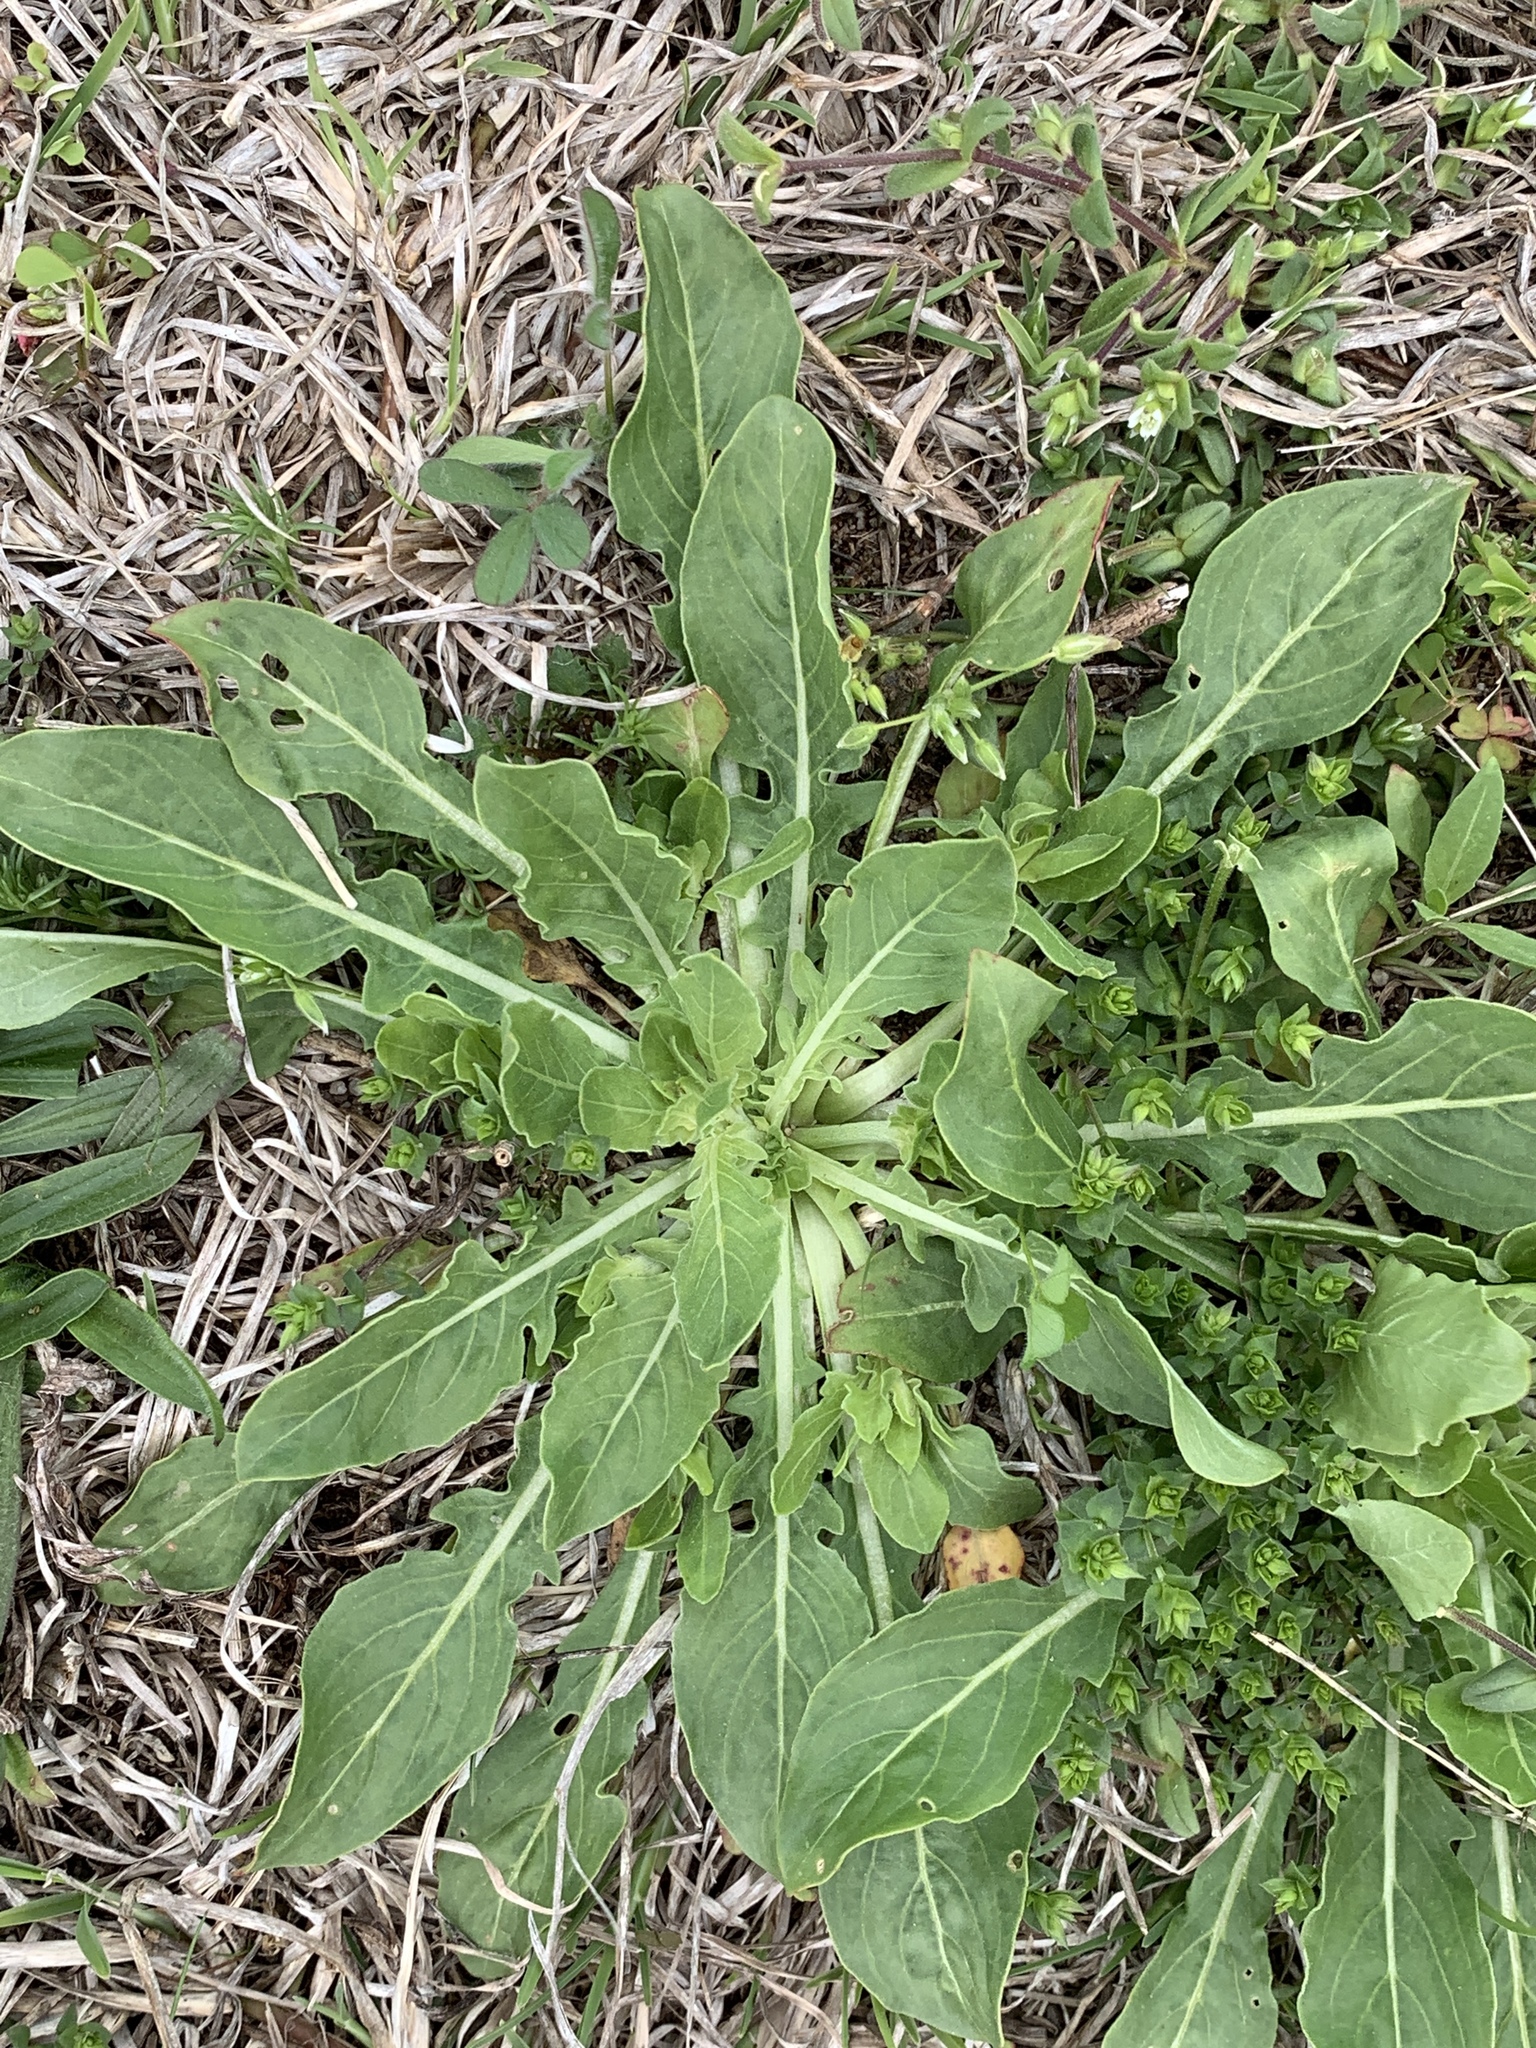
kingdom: Plantae
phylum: Tracheophyta
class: Magnoliopsida
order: Myrtales
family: Onagraceae
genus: Oenothera
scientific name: Oenothera laciniata
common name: Cut-leaved evening-primrose
